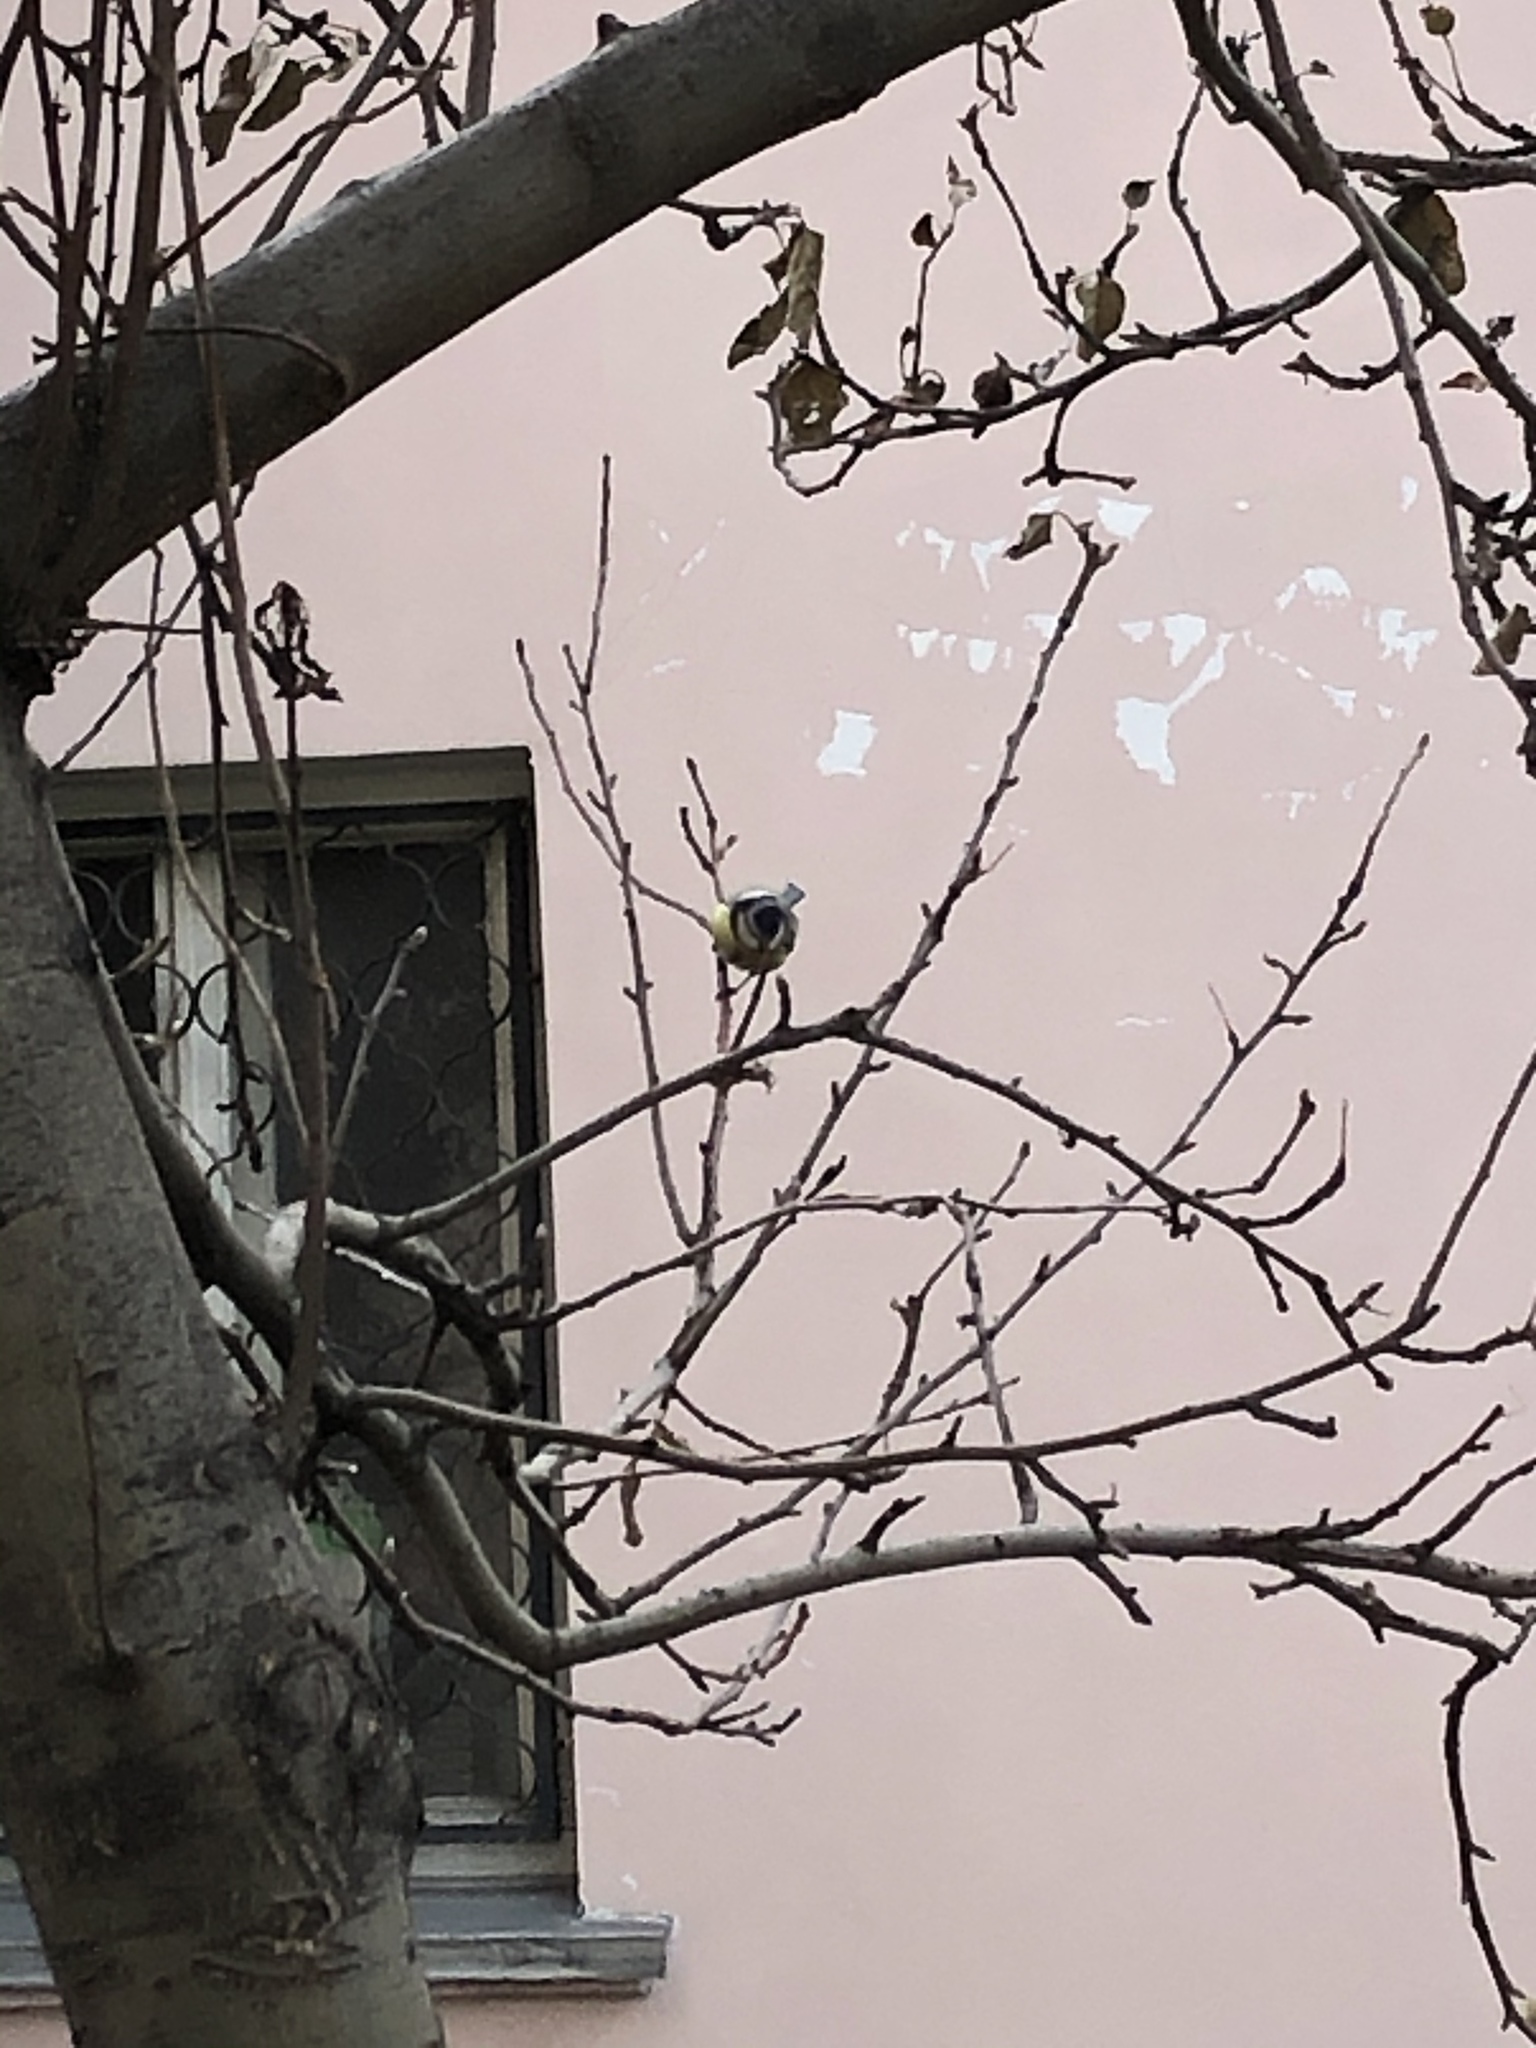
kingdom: Animalia
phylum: Chordata
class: Aves
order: Passeriformes
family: Paridae
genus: Cyanistes
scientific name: Cyanistes caeruleus
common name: Eurasian blue tit
